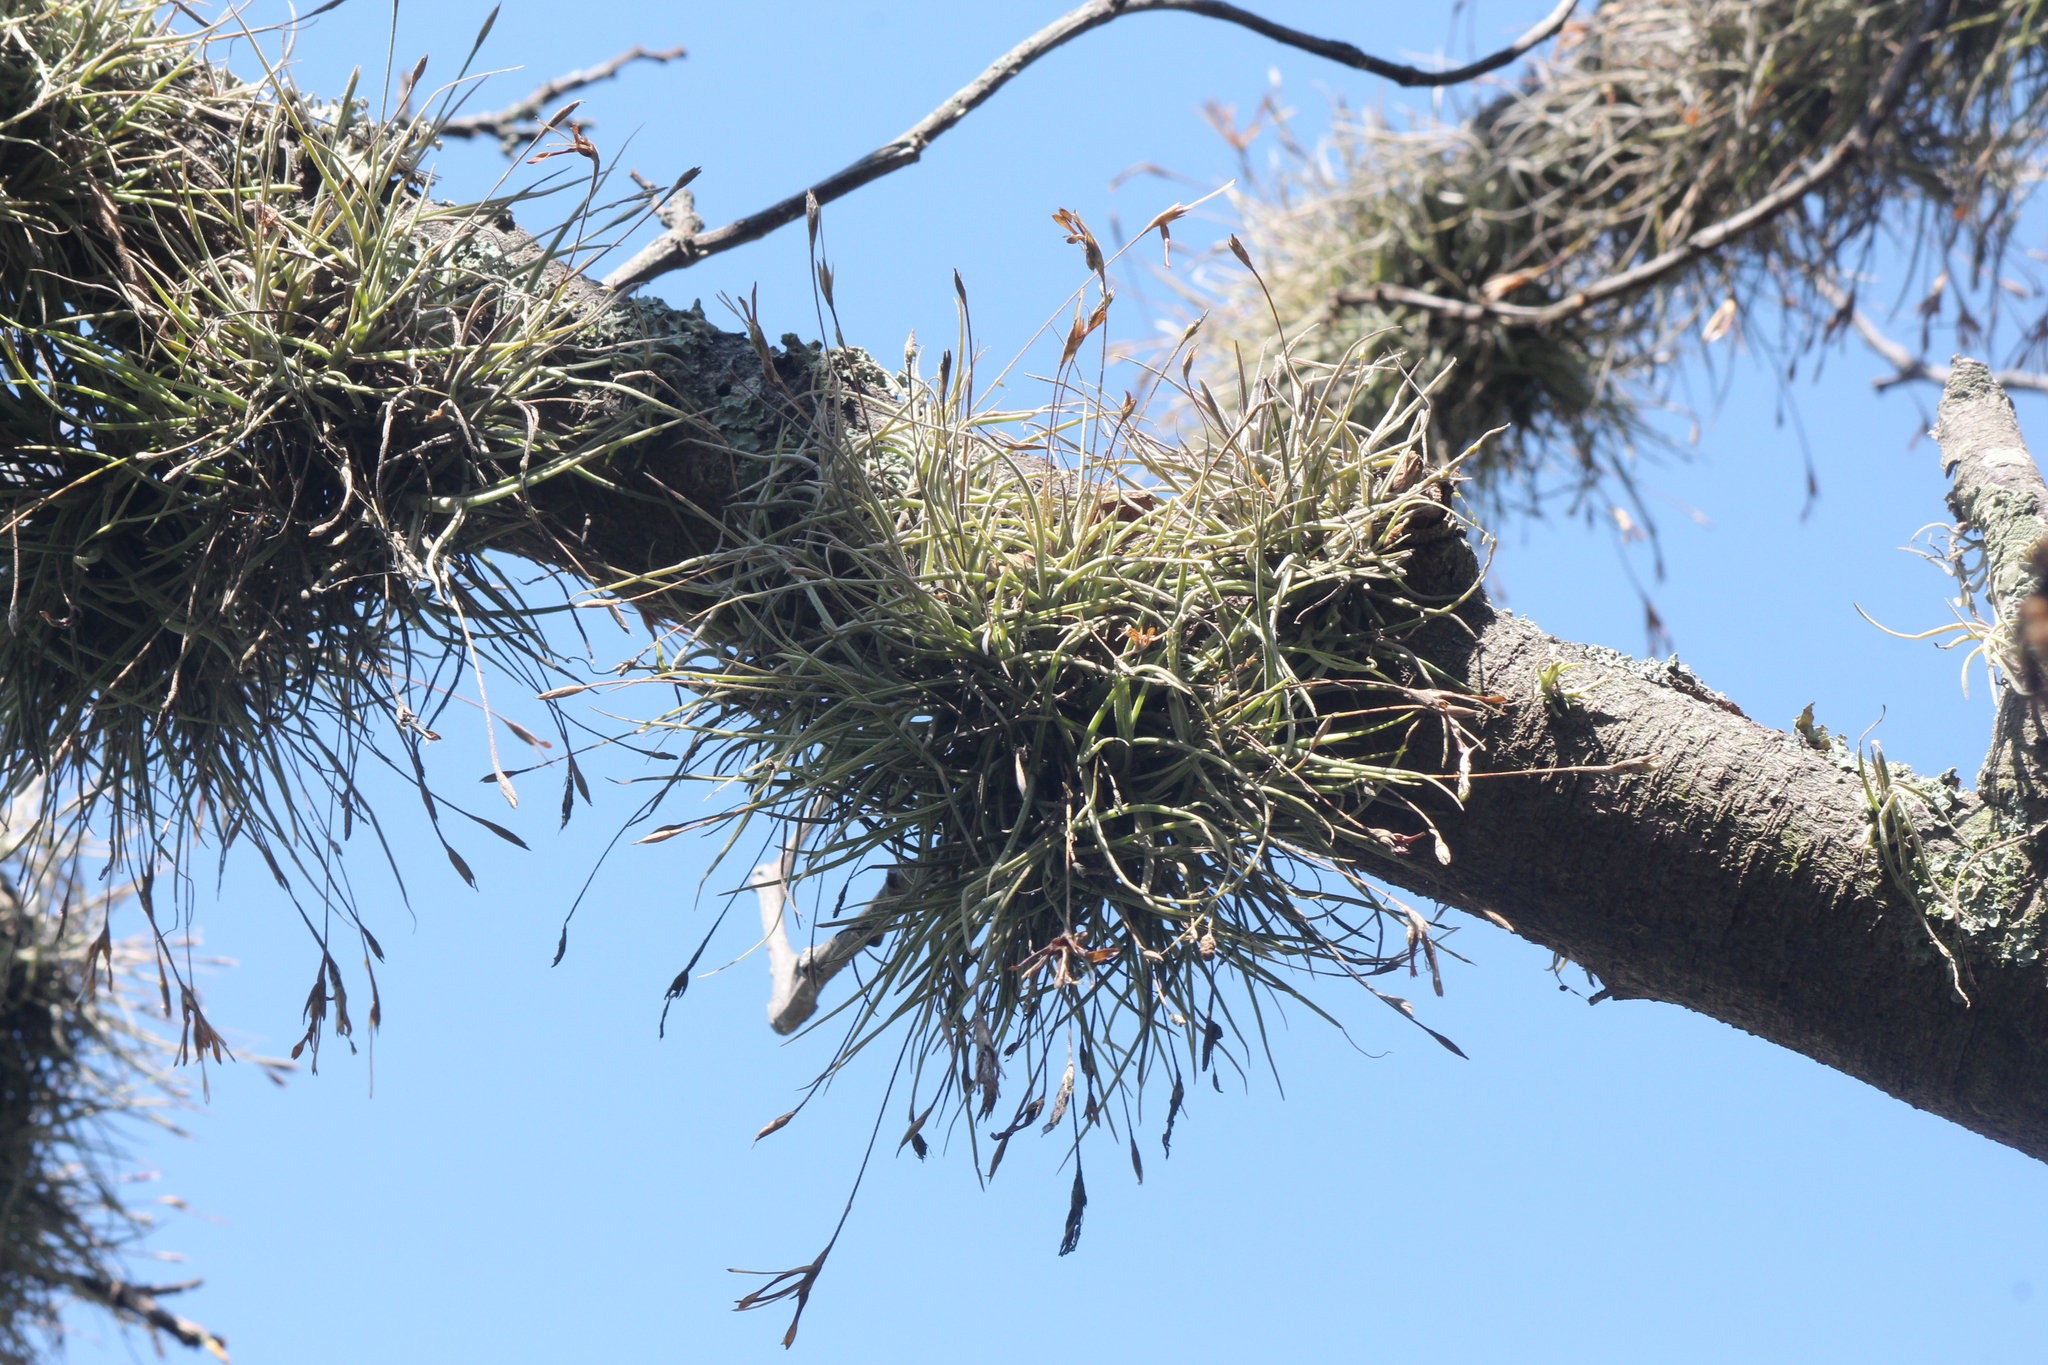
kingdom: Plantae
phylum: Tracheophyta
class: Liliopsida
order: Poales
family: Bromeliaceae
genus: Tillandsia
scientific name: Tillandsia recurvata
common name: Small ballmoss
